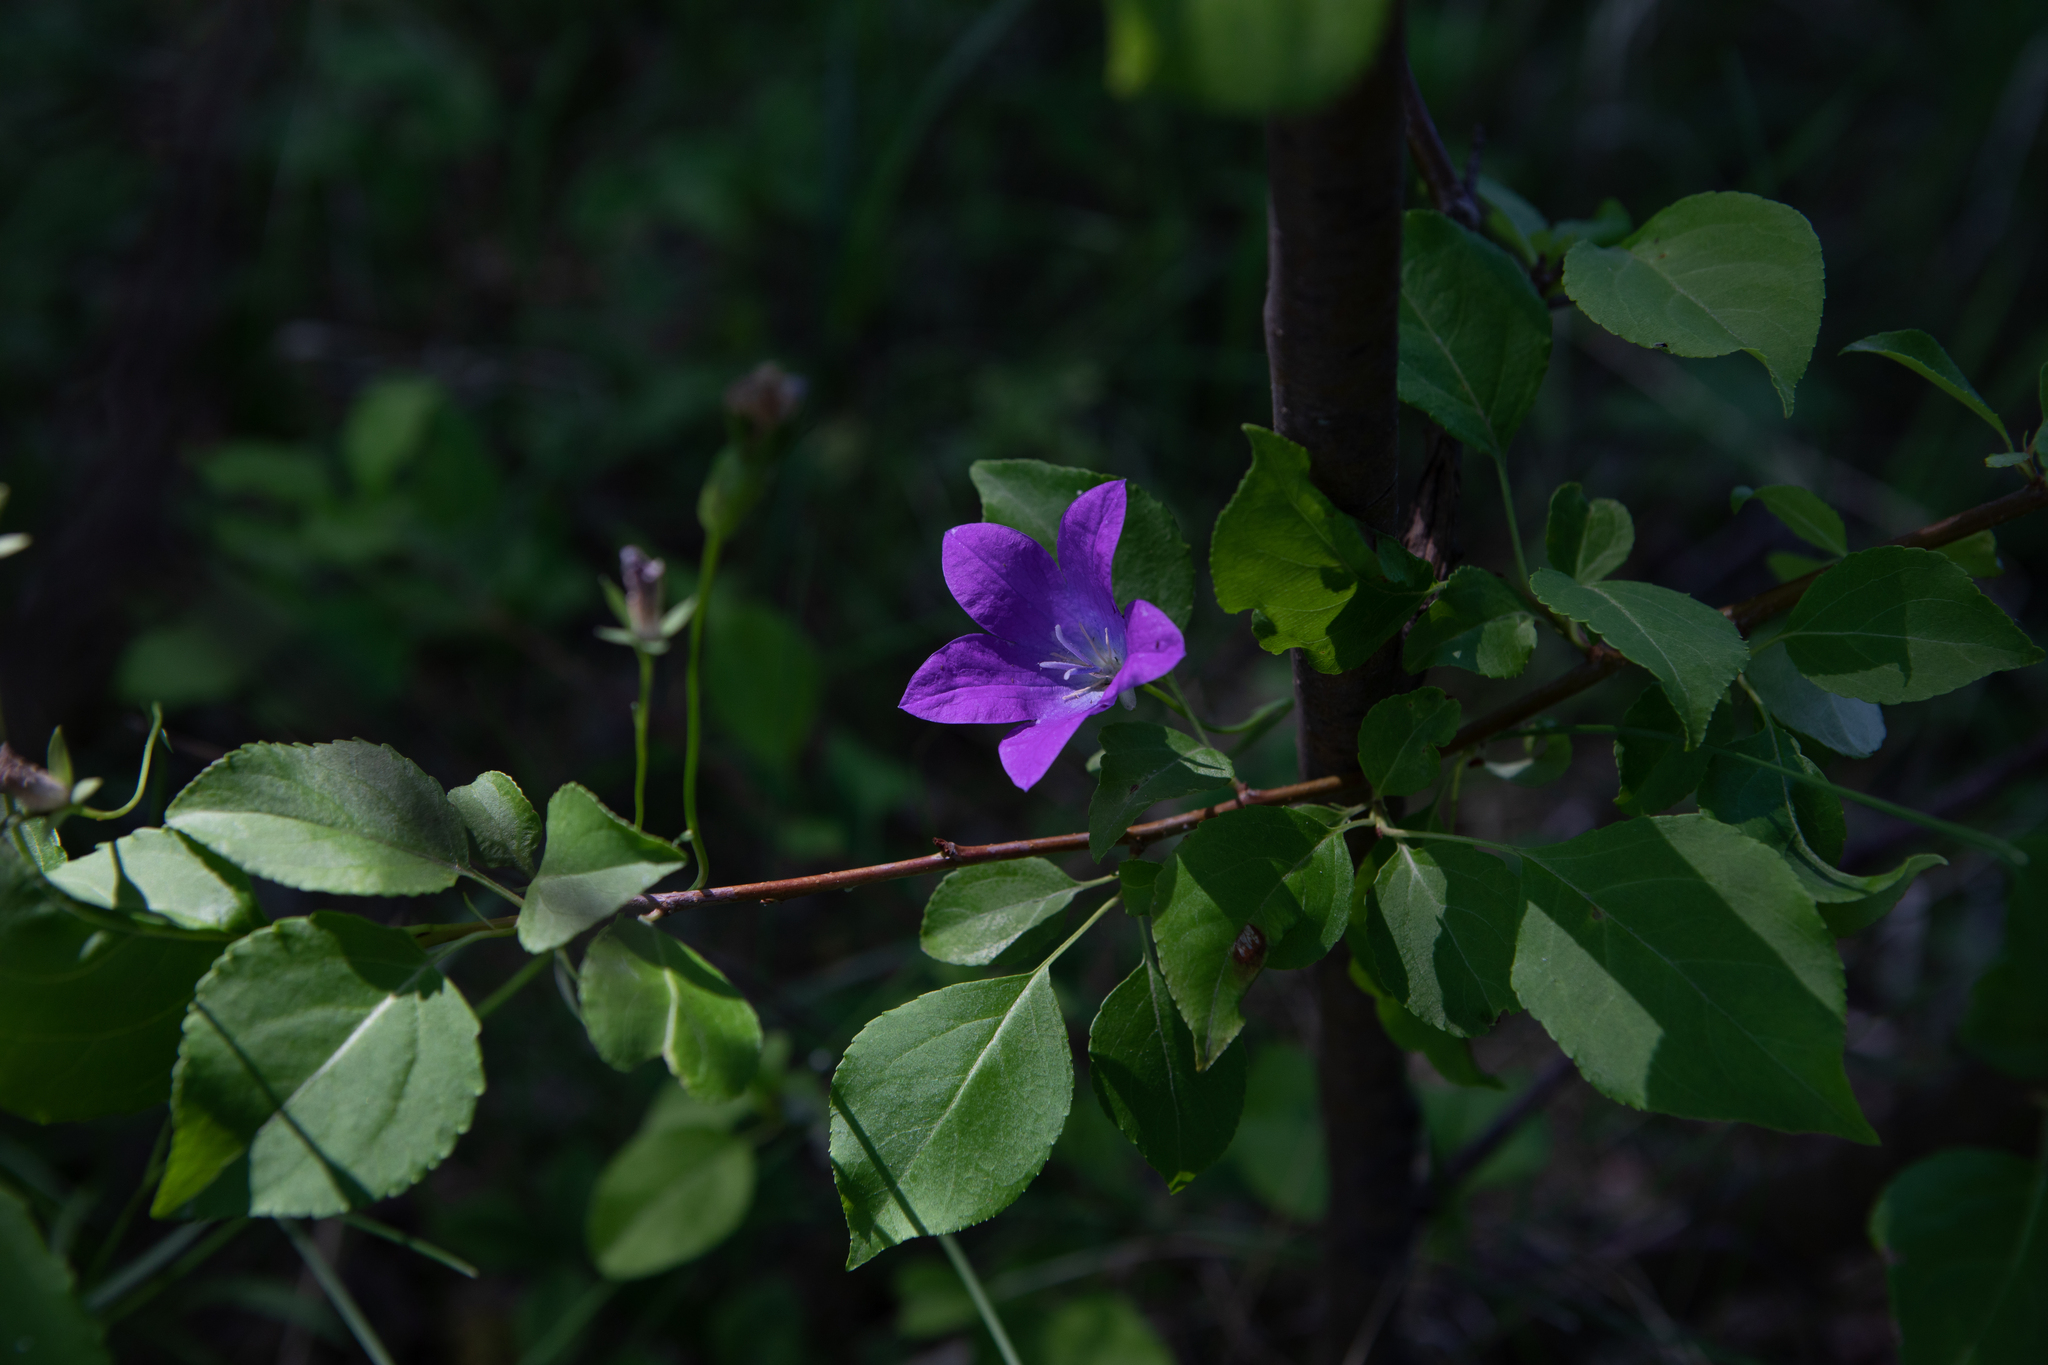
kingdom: Plantae
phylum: Tracheophyta
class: Magnoliopsida
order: Asterales
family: Campanulaceae
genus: Campanula
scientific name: Campanula stevenii
